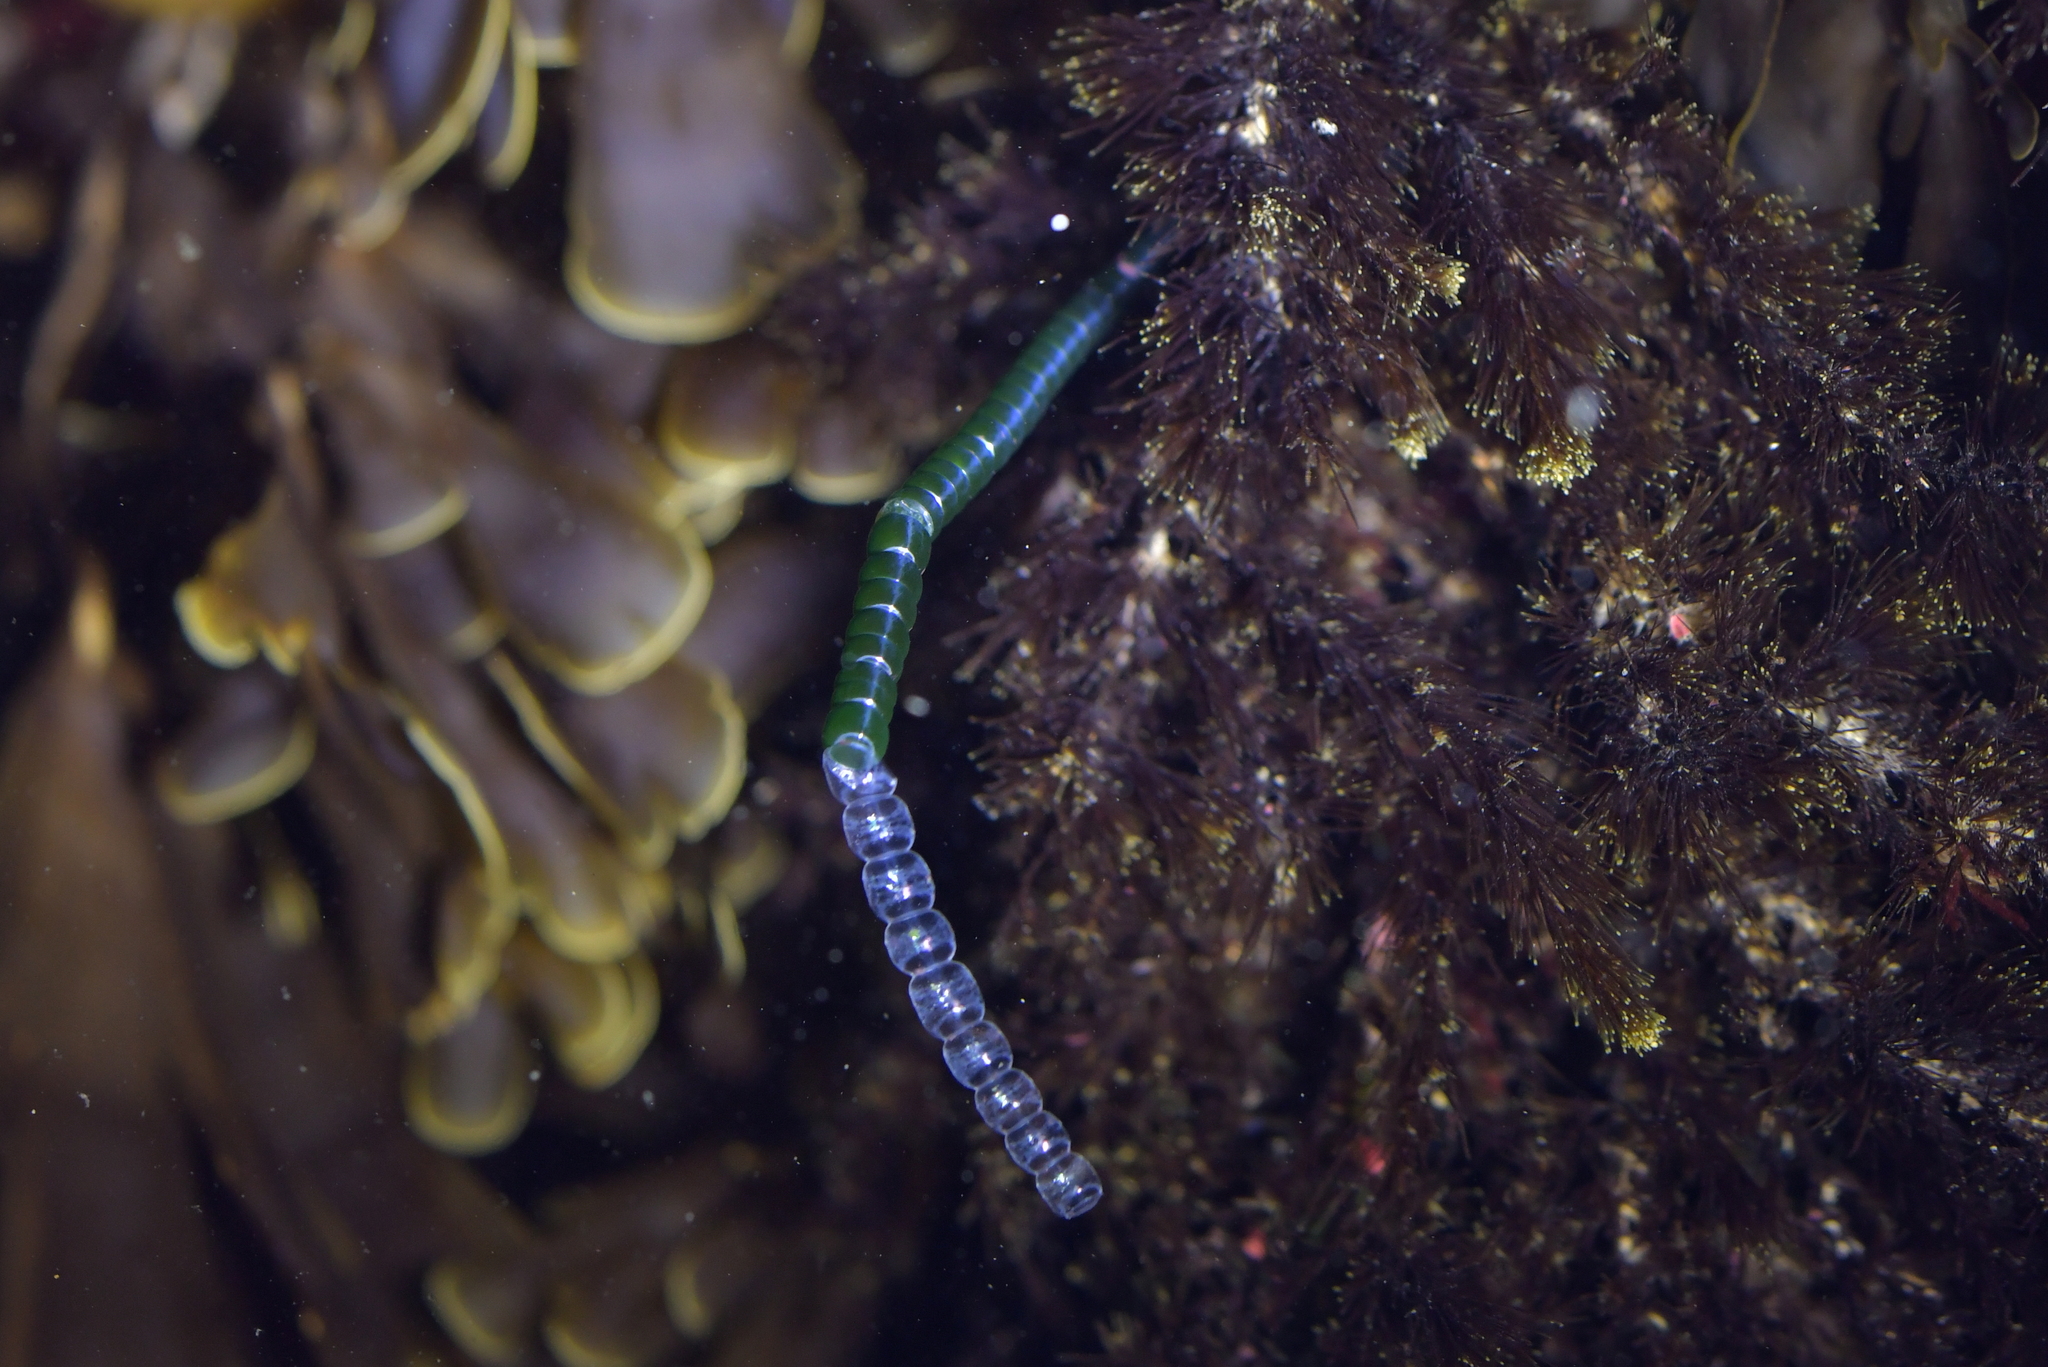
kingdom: Plantae
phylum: Chlorophyta
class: Ulvophyceae
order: Cladophorales
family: Cladophoraceae
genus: Chaetomorpha
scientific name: Chaetomorpha coliformis
